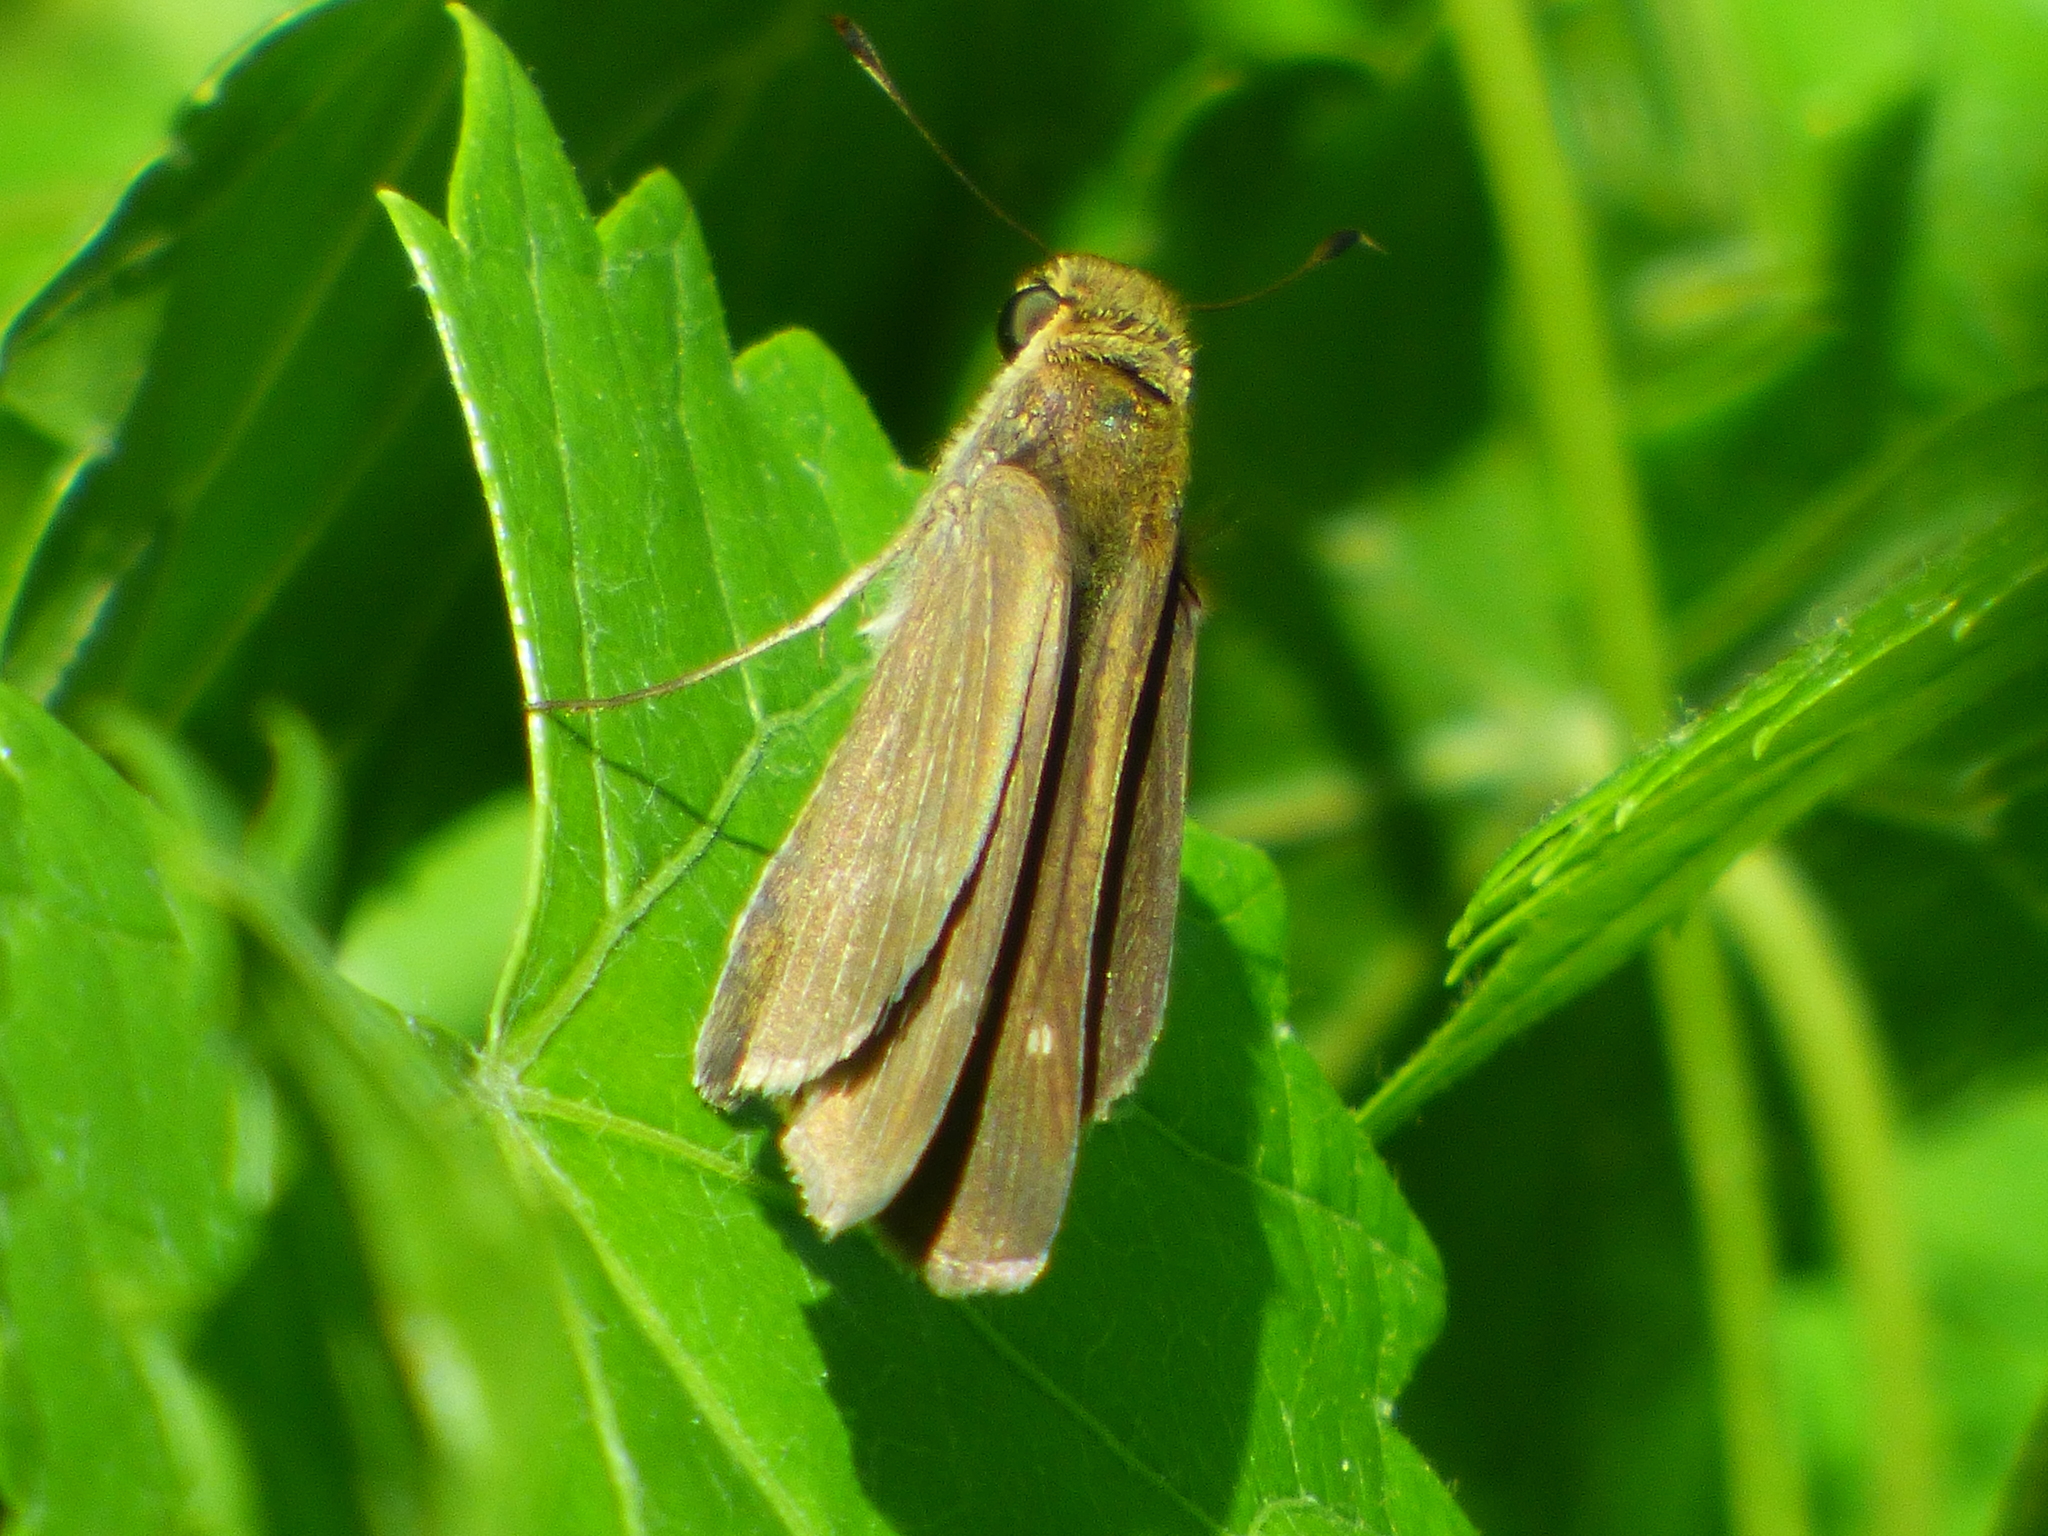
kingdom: Animalia
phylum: Arthropoda
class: Insecta
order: Lepidoptera
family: Hesperiidae
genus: Panoquina
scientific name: Panoquina ocola
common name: Ocola skipper
